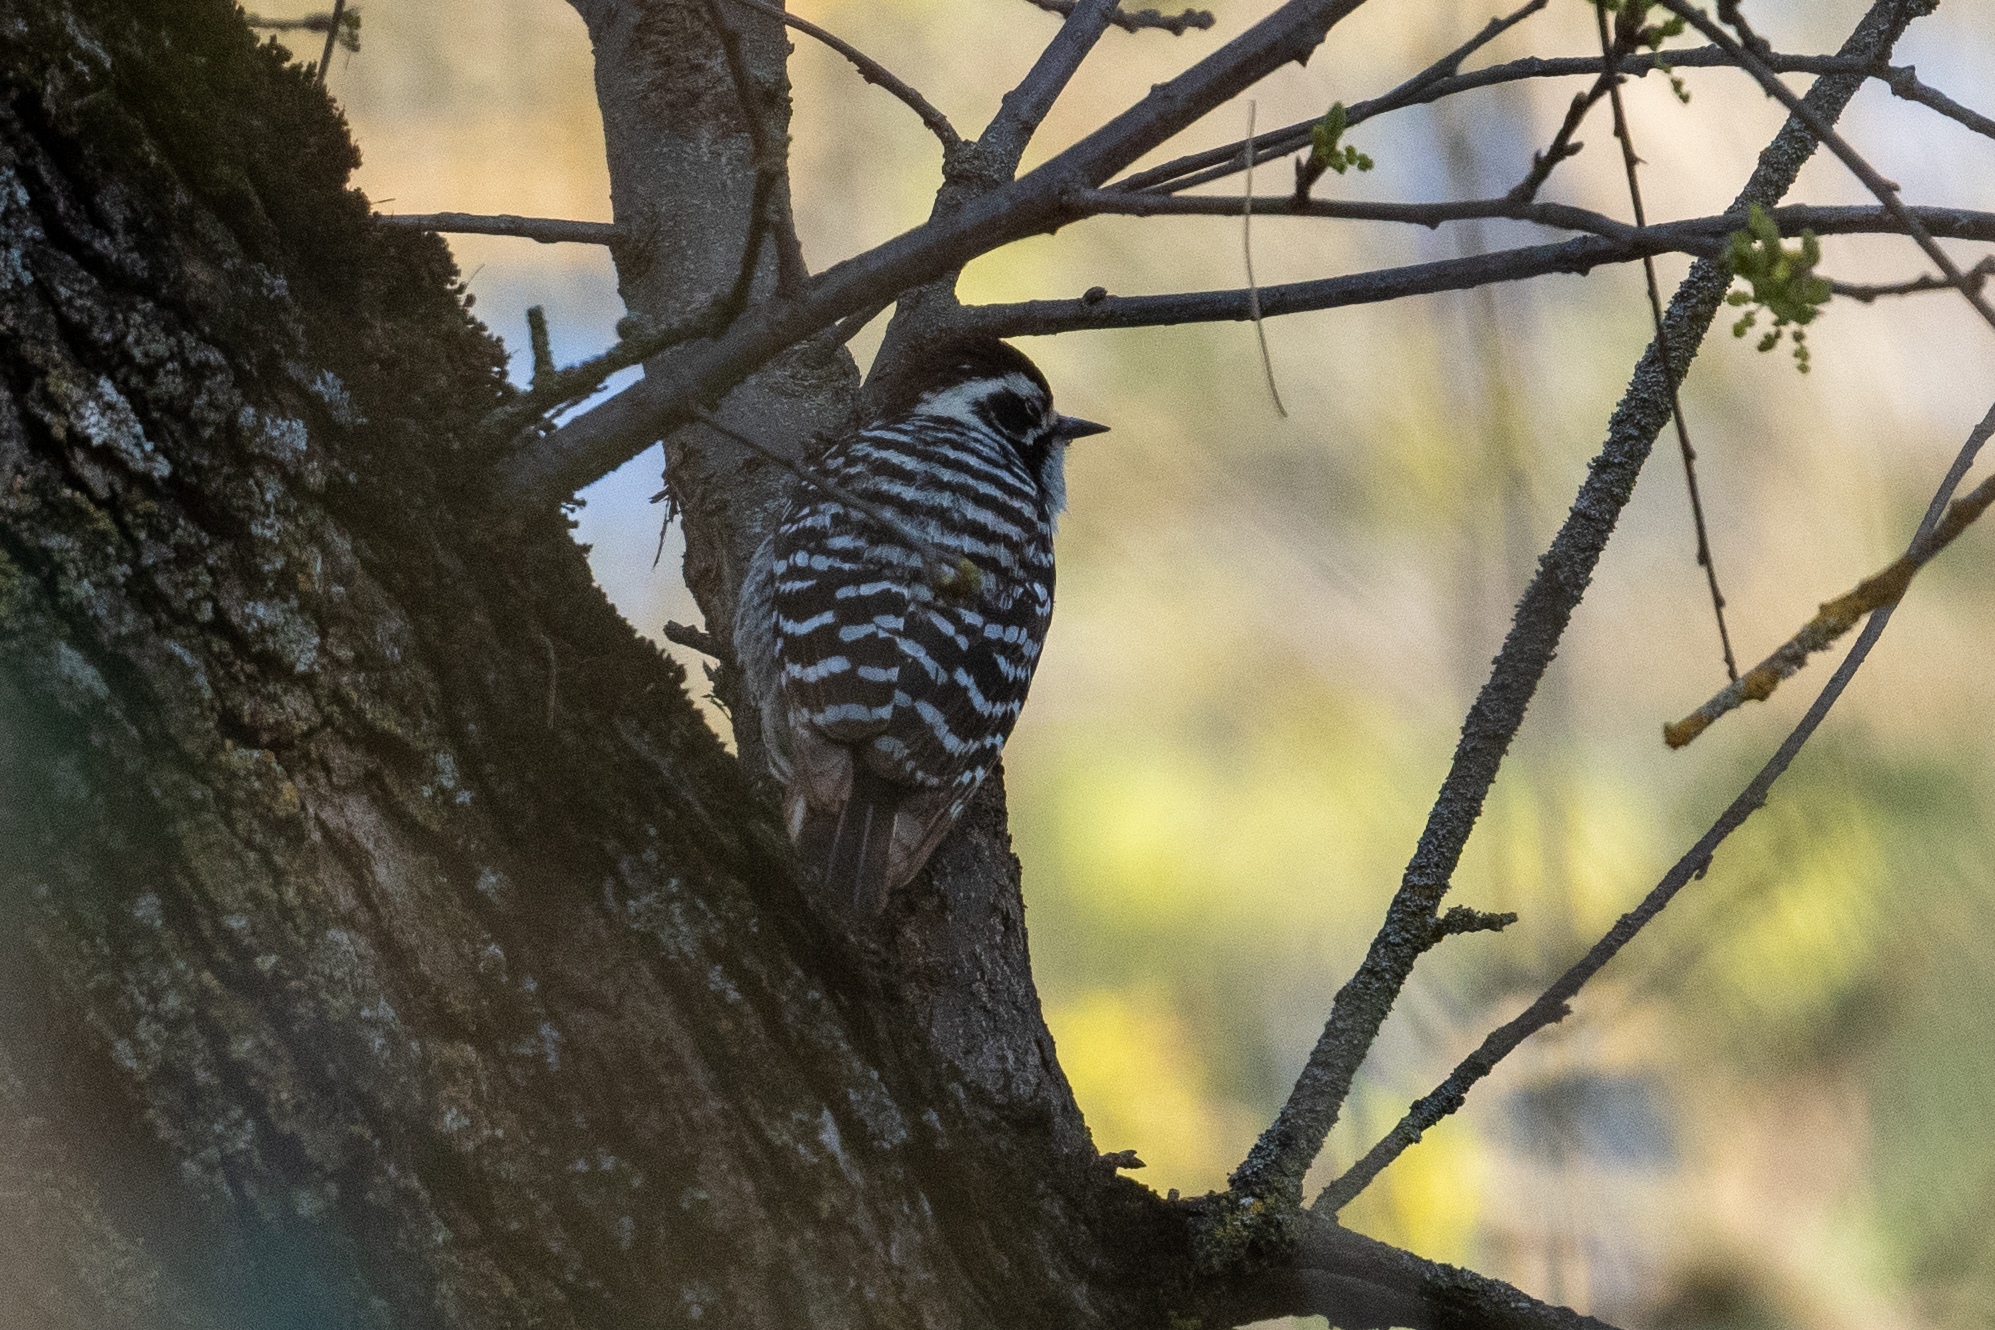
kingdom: Animalia
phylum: Chordata
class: Aves
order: Piciformes
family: Picidae
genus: Dryobates
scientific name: Dryobates nuttallii
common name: Nuttall's woodpecker
